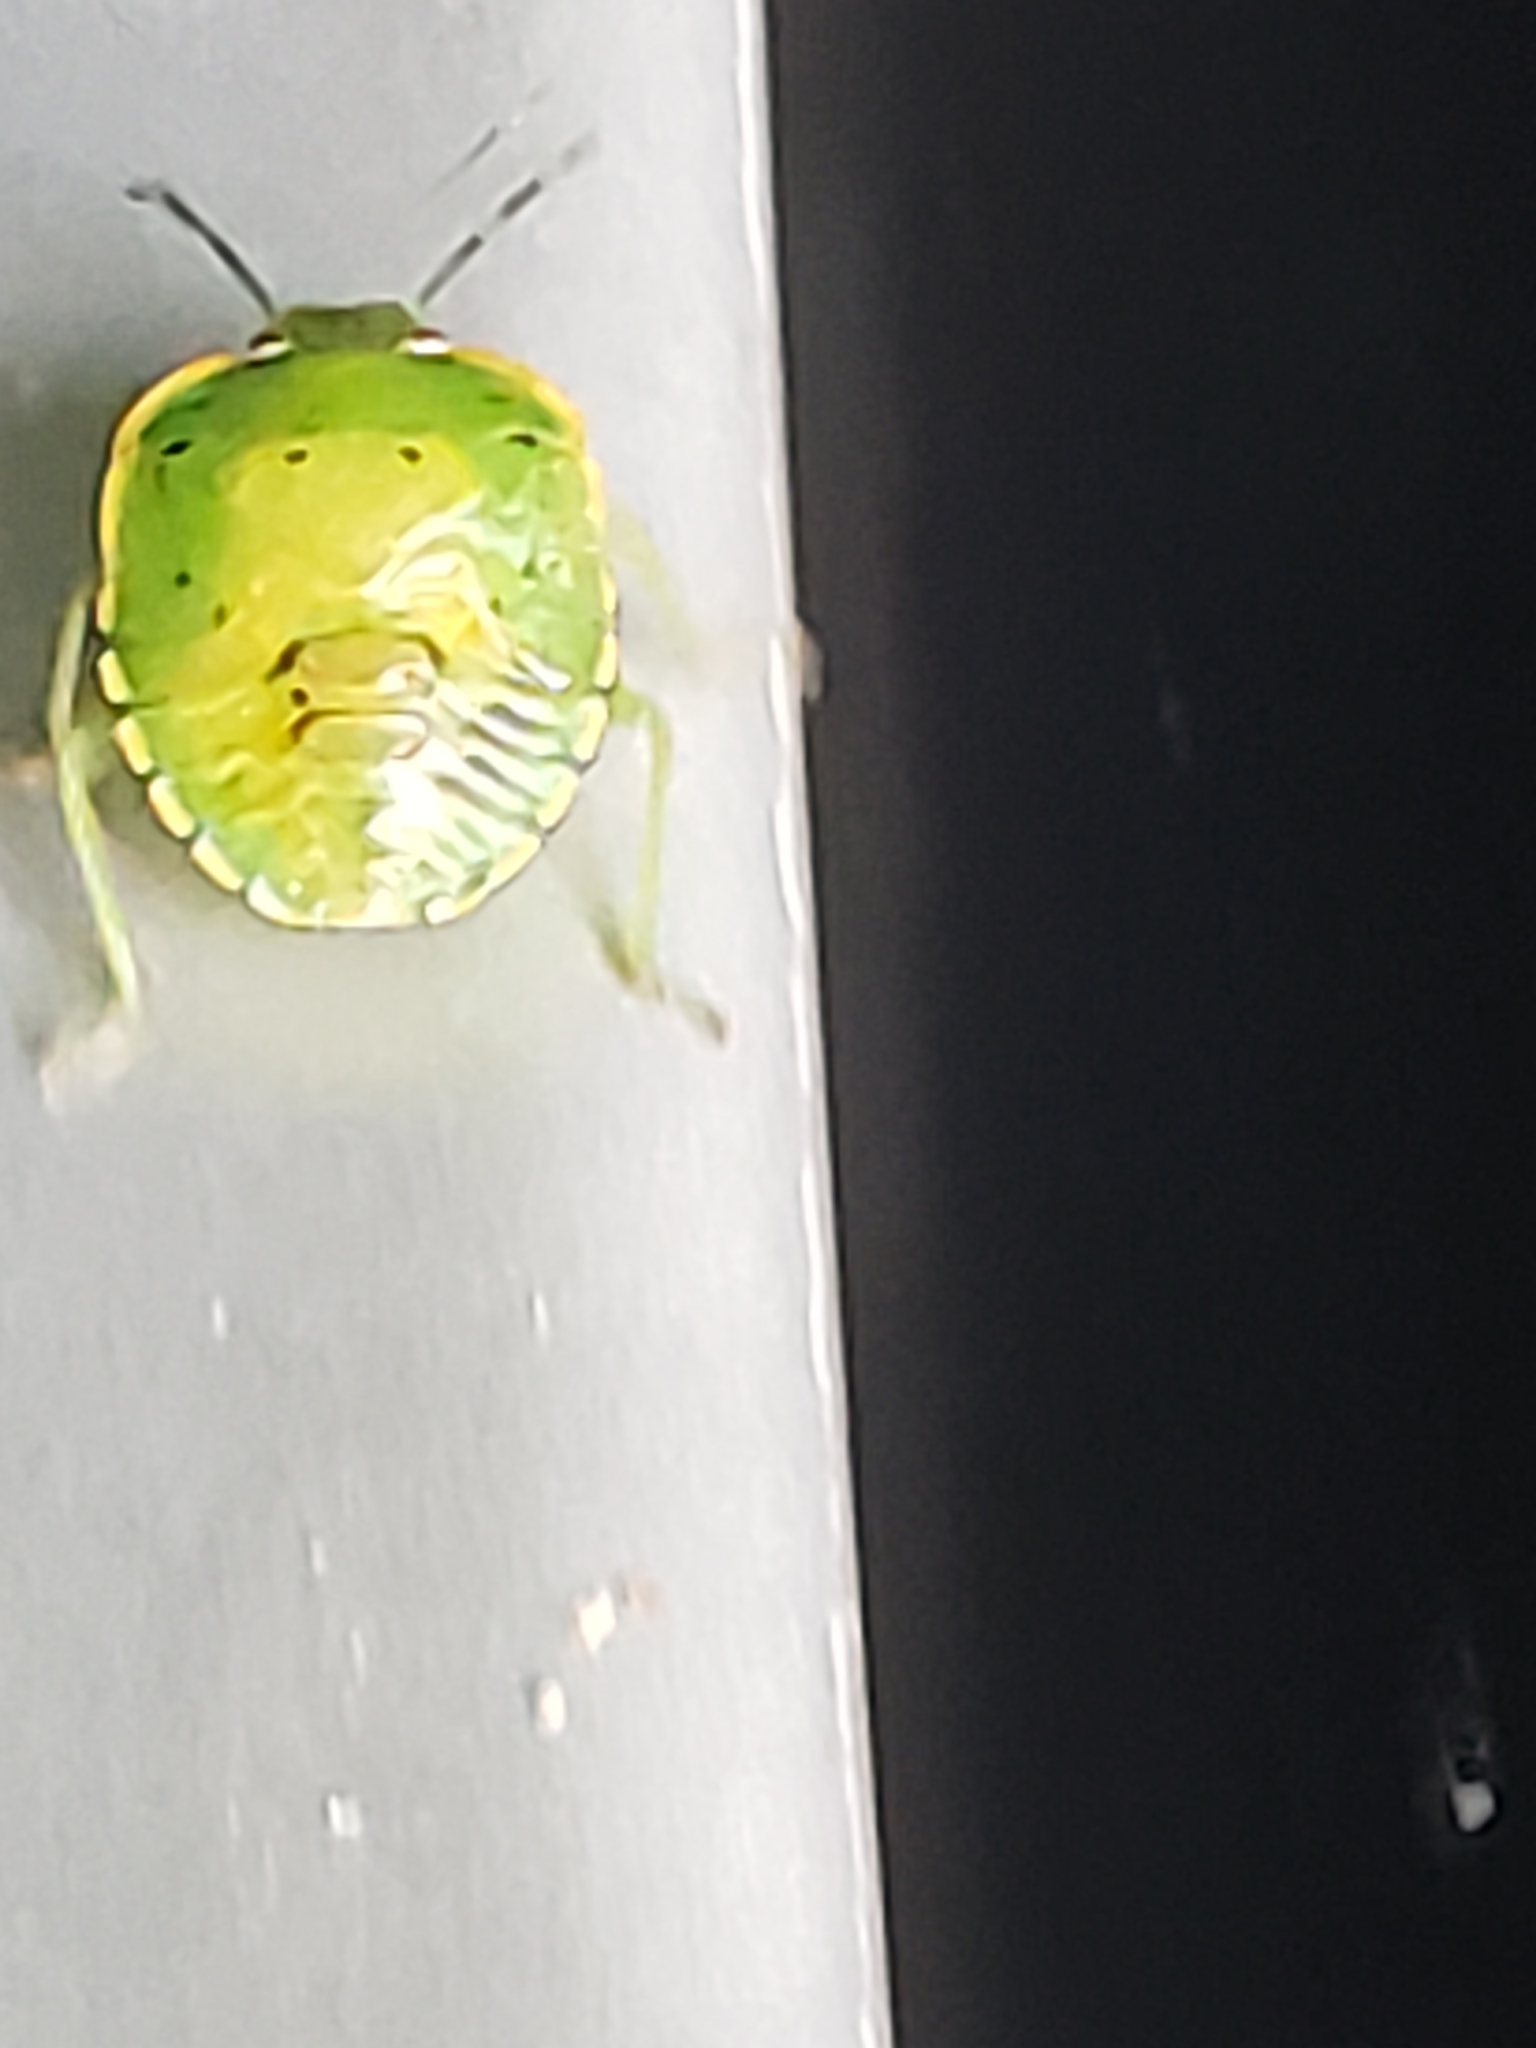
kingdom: Animalia
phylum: Arthropoda
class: Insecta
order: Hemiptera
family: Pentatomidae
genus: Chinavia
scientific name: Chinavia hilaris
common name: Green stink bug
